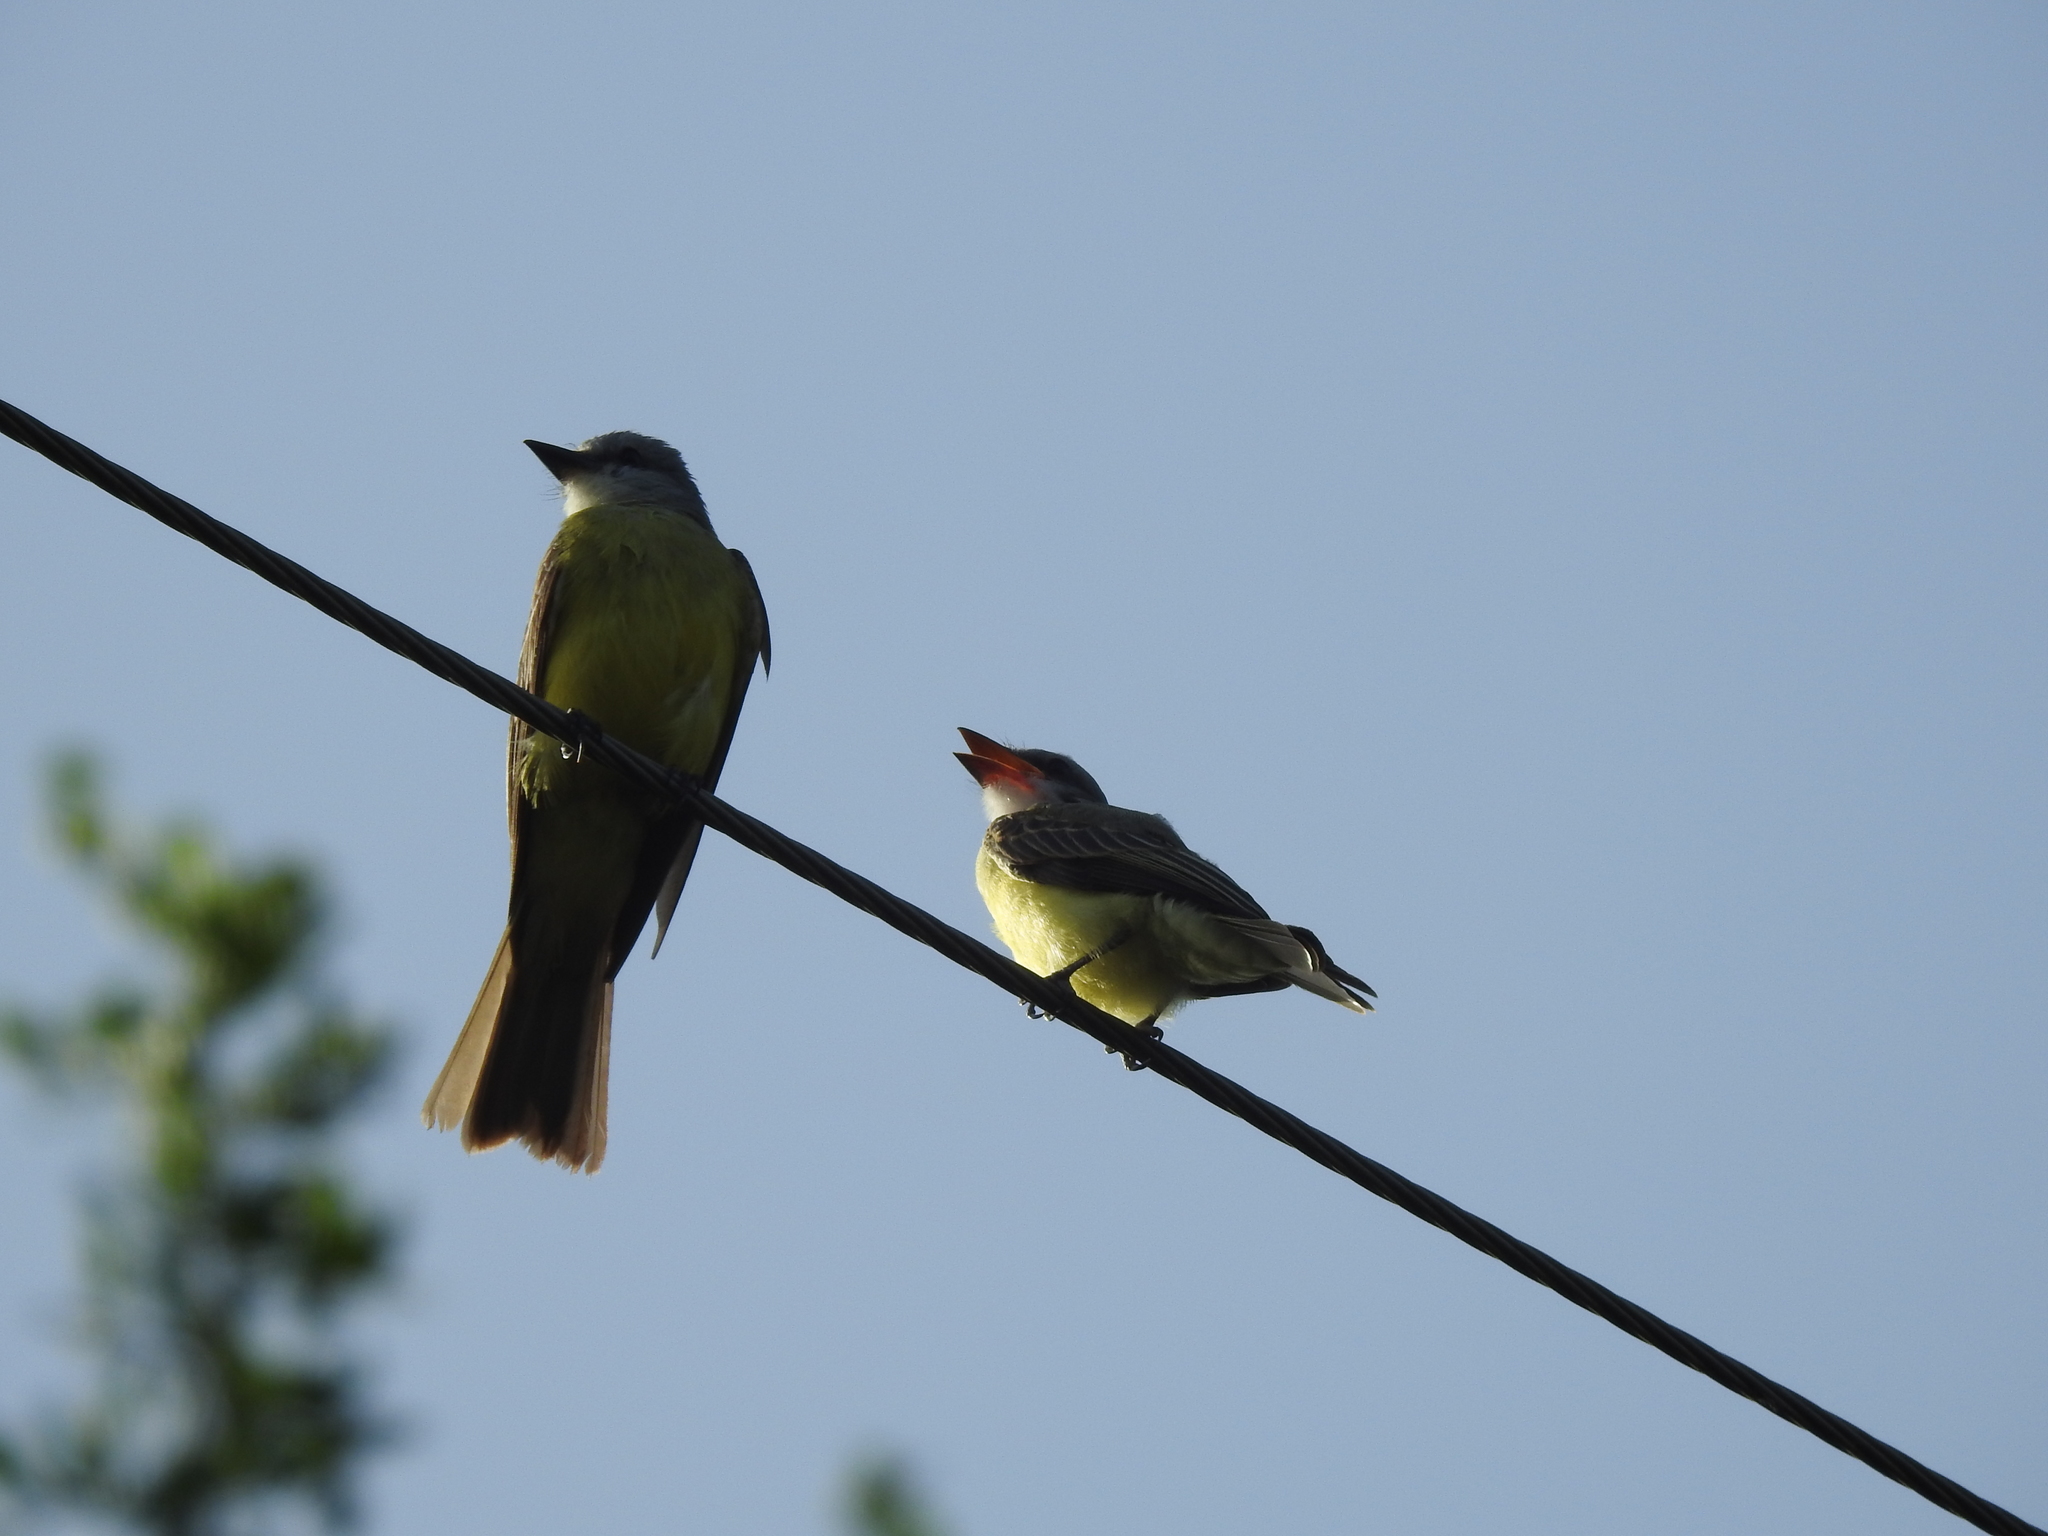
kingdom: Animalia
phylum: Chordata
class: Aves
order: Passeriformes
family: Tyrannidae
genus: Tyrannus
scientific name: Tyrannus
